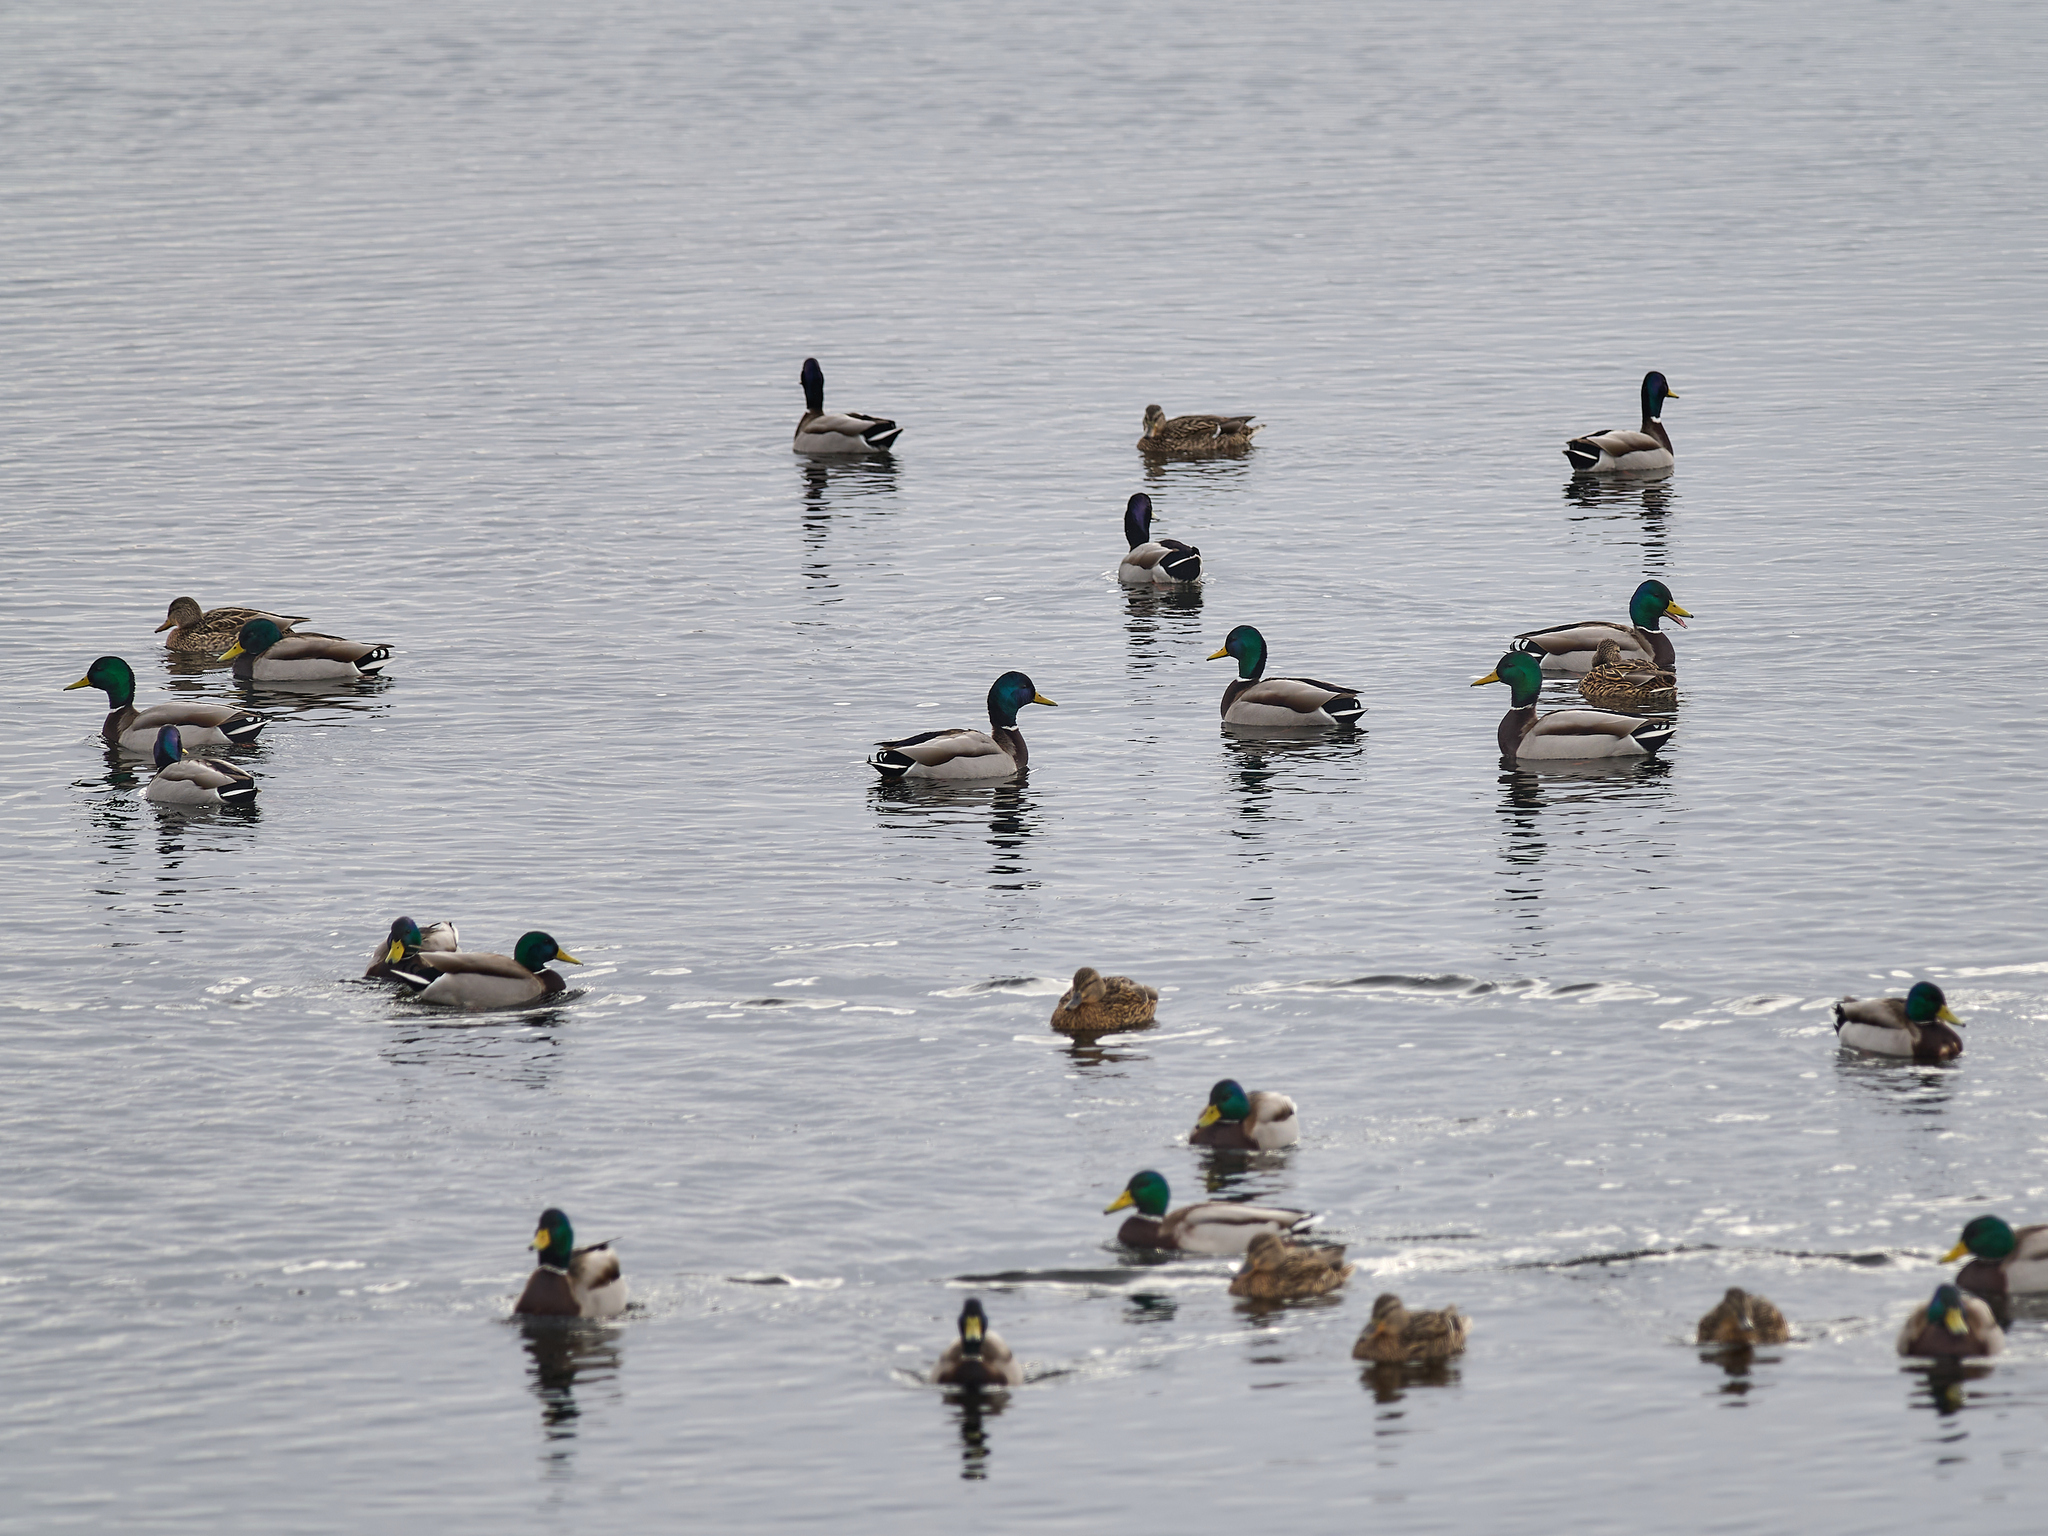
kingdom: Animalia
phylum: Chordata
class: Aves
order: Anseriformes
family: Anatidae
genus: Anas
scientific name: Anas platyrhynchos
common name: Mallard
